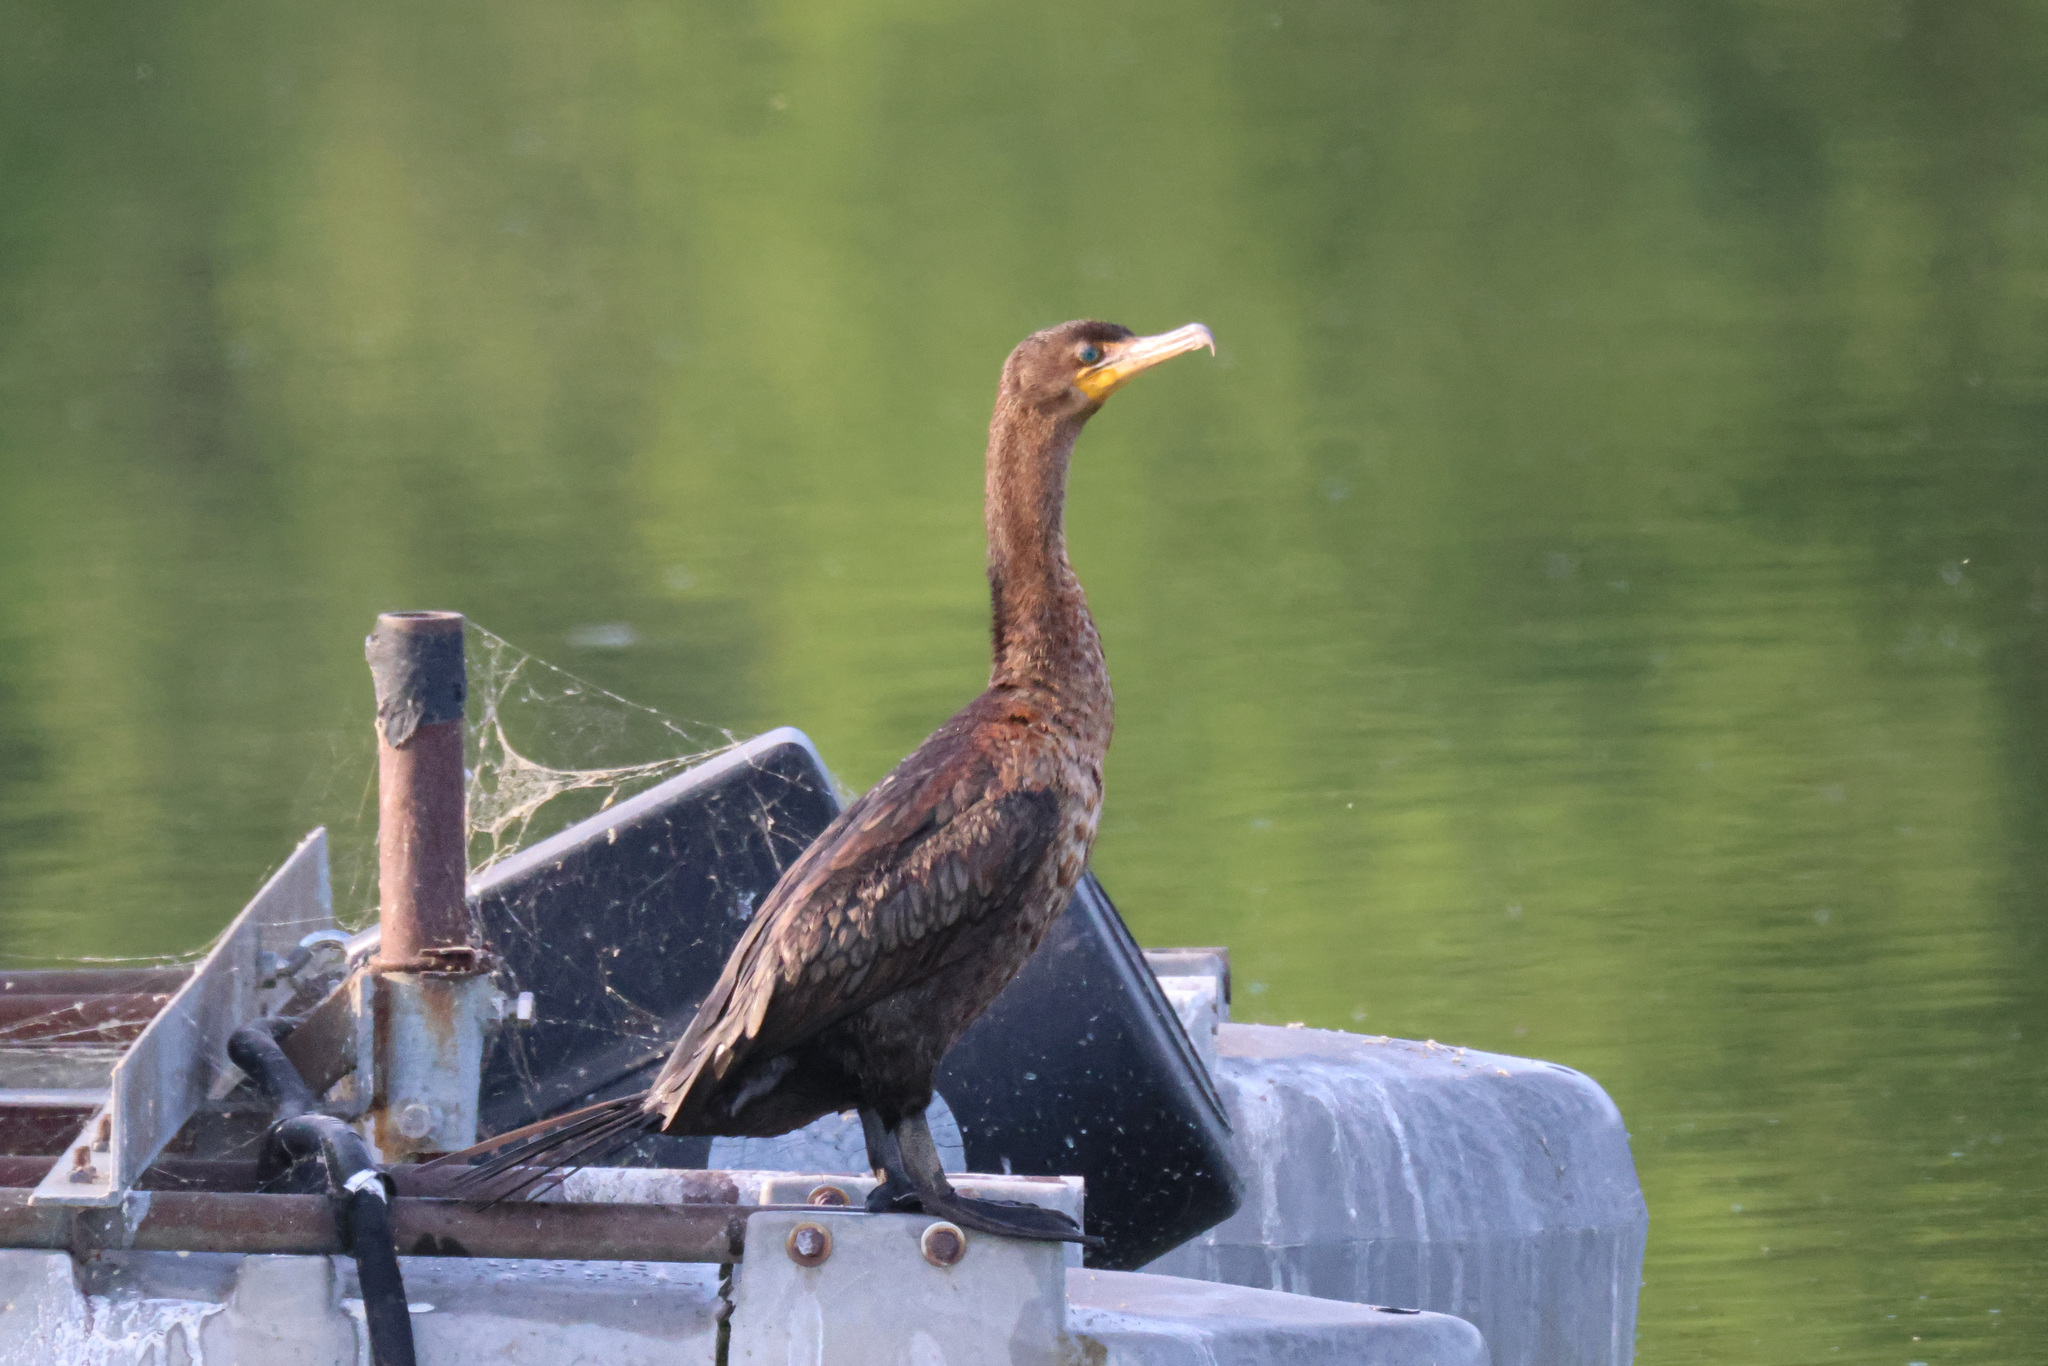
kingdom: Animalia
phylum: Chordata
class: Aves
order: Suliformes
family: Phalacrocoracidae
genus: Phalacrocorax
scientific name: Phalacrocorax auritus
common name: Double-crested cormorant
